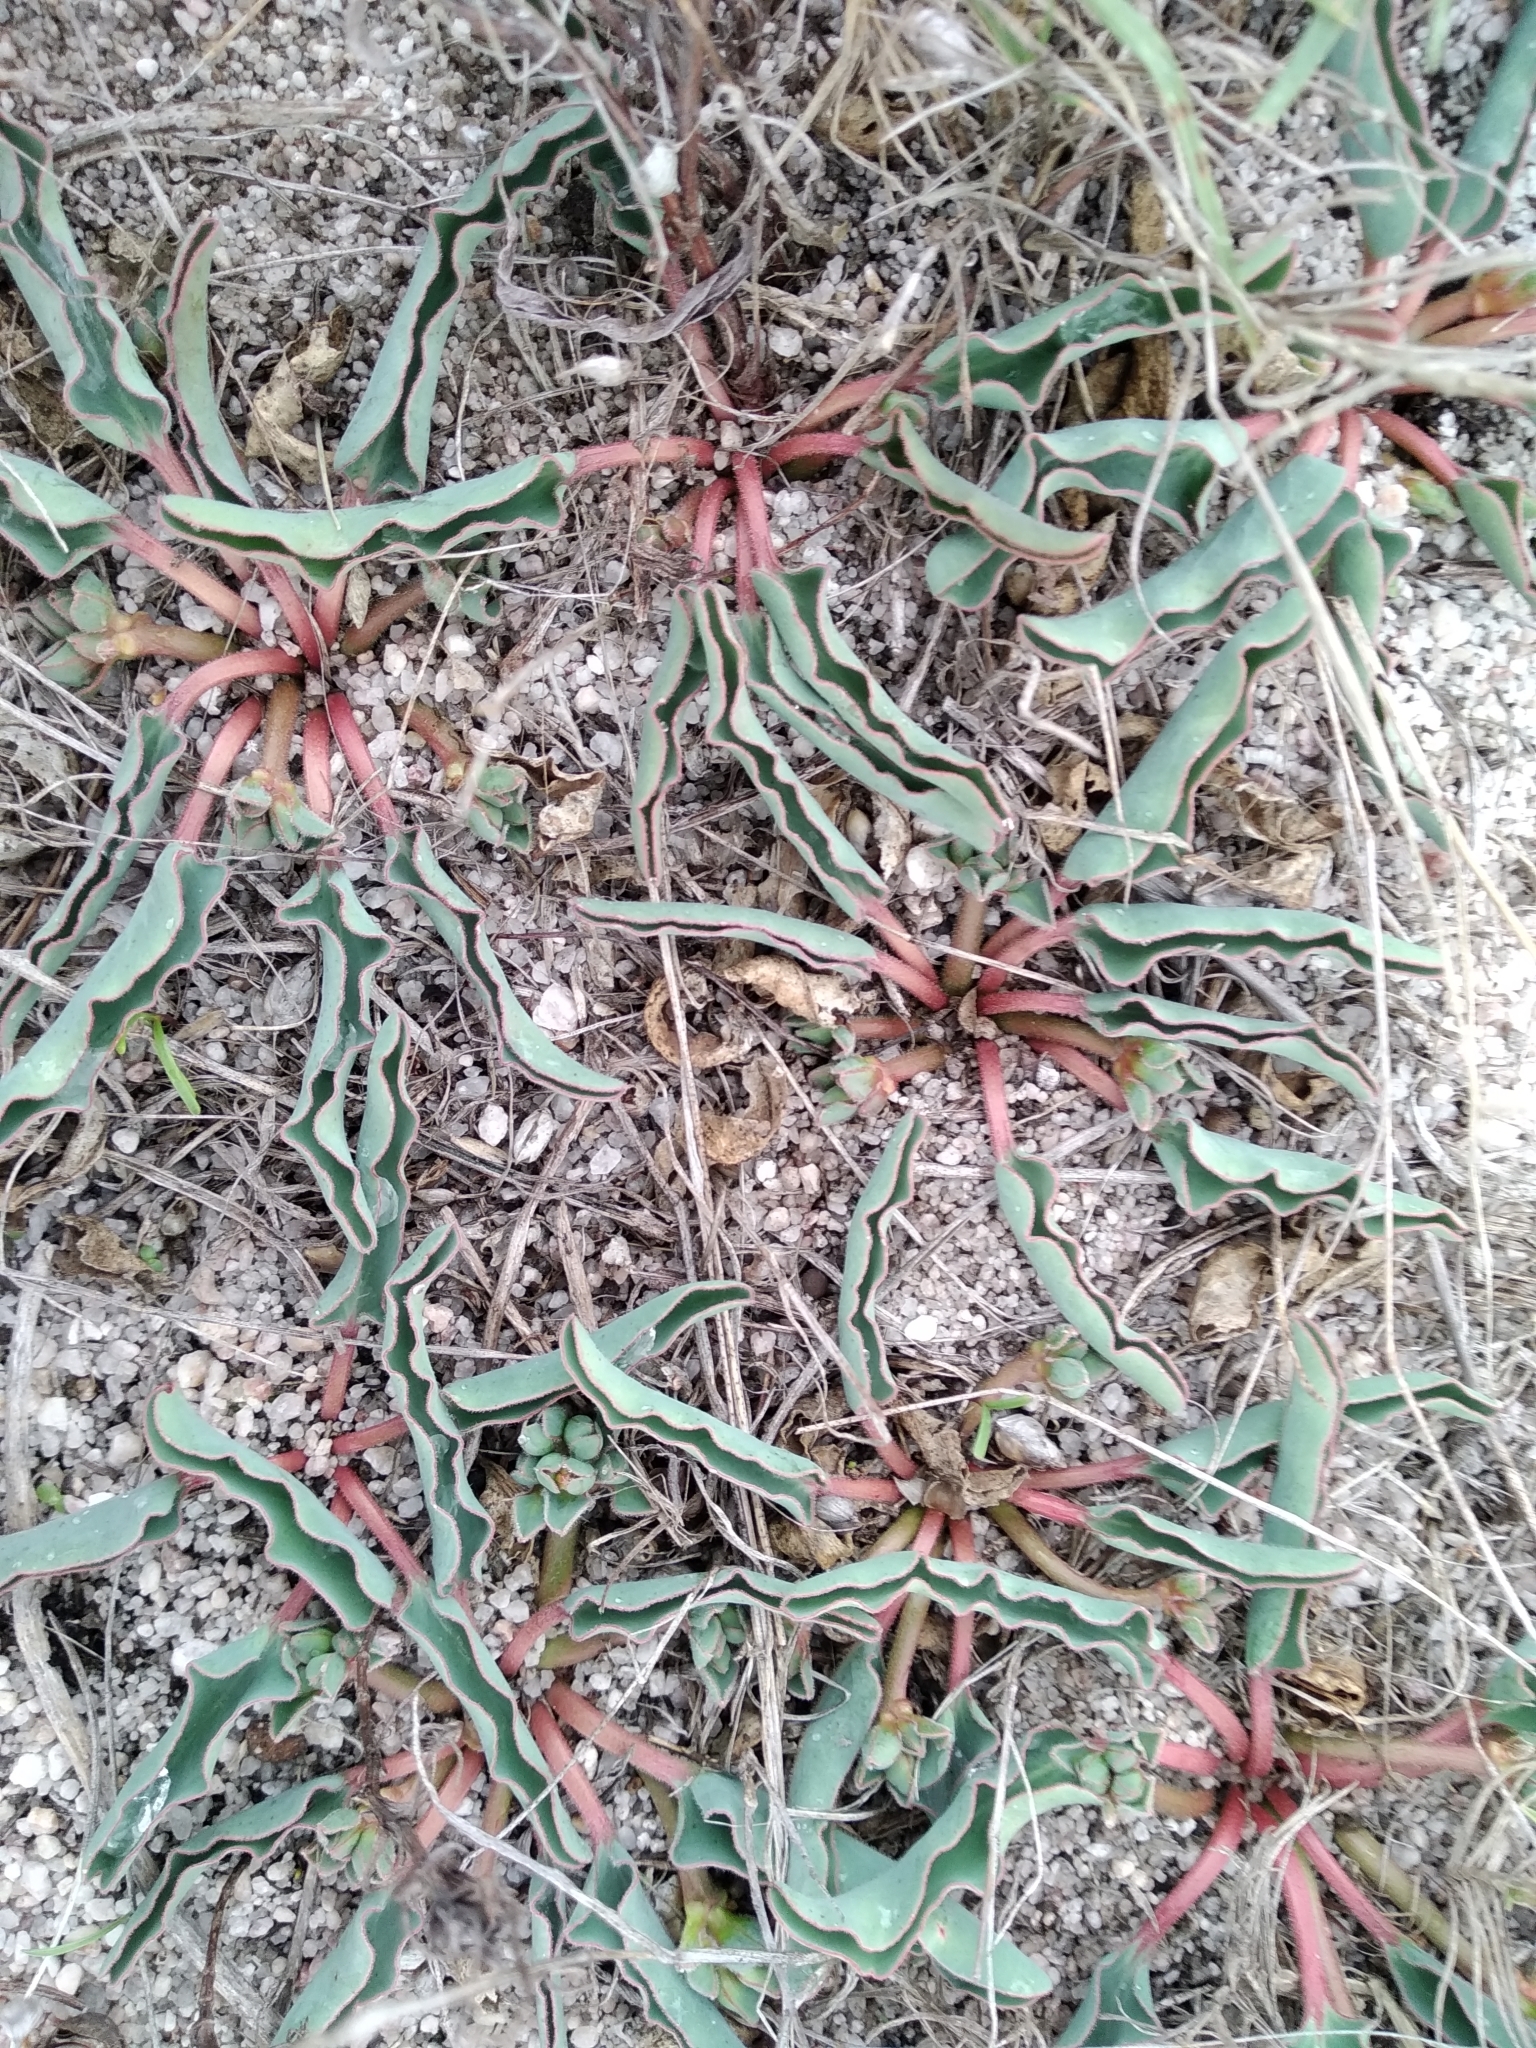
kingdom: Plantae
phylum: Tracheophyta
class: Magnoliopsida
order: Malpighiales
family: Euphorbiaceae
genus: Euphorbia
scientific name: Euphorbia tuberosa
